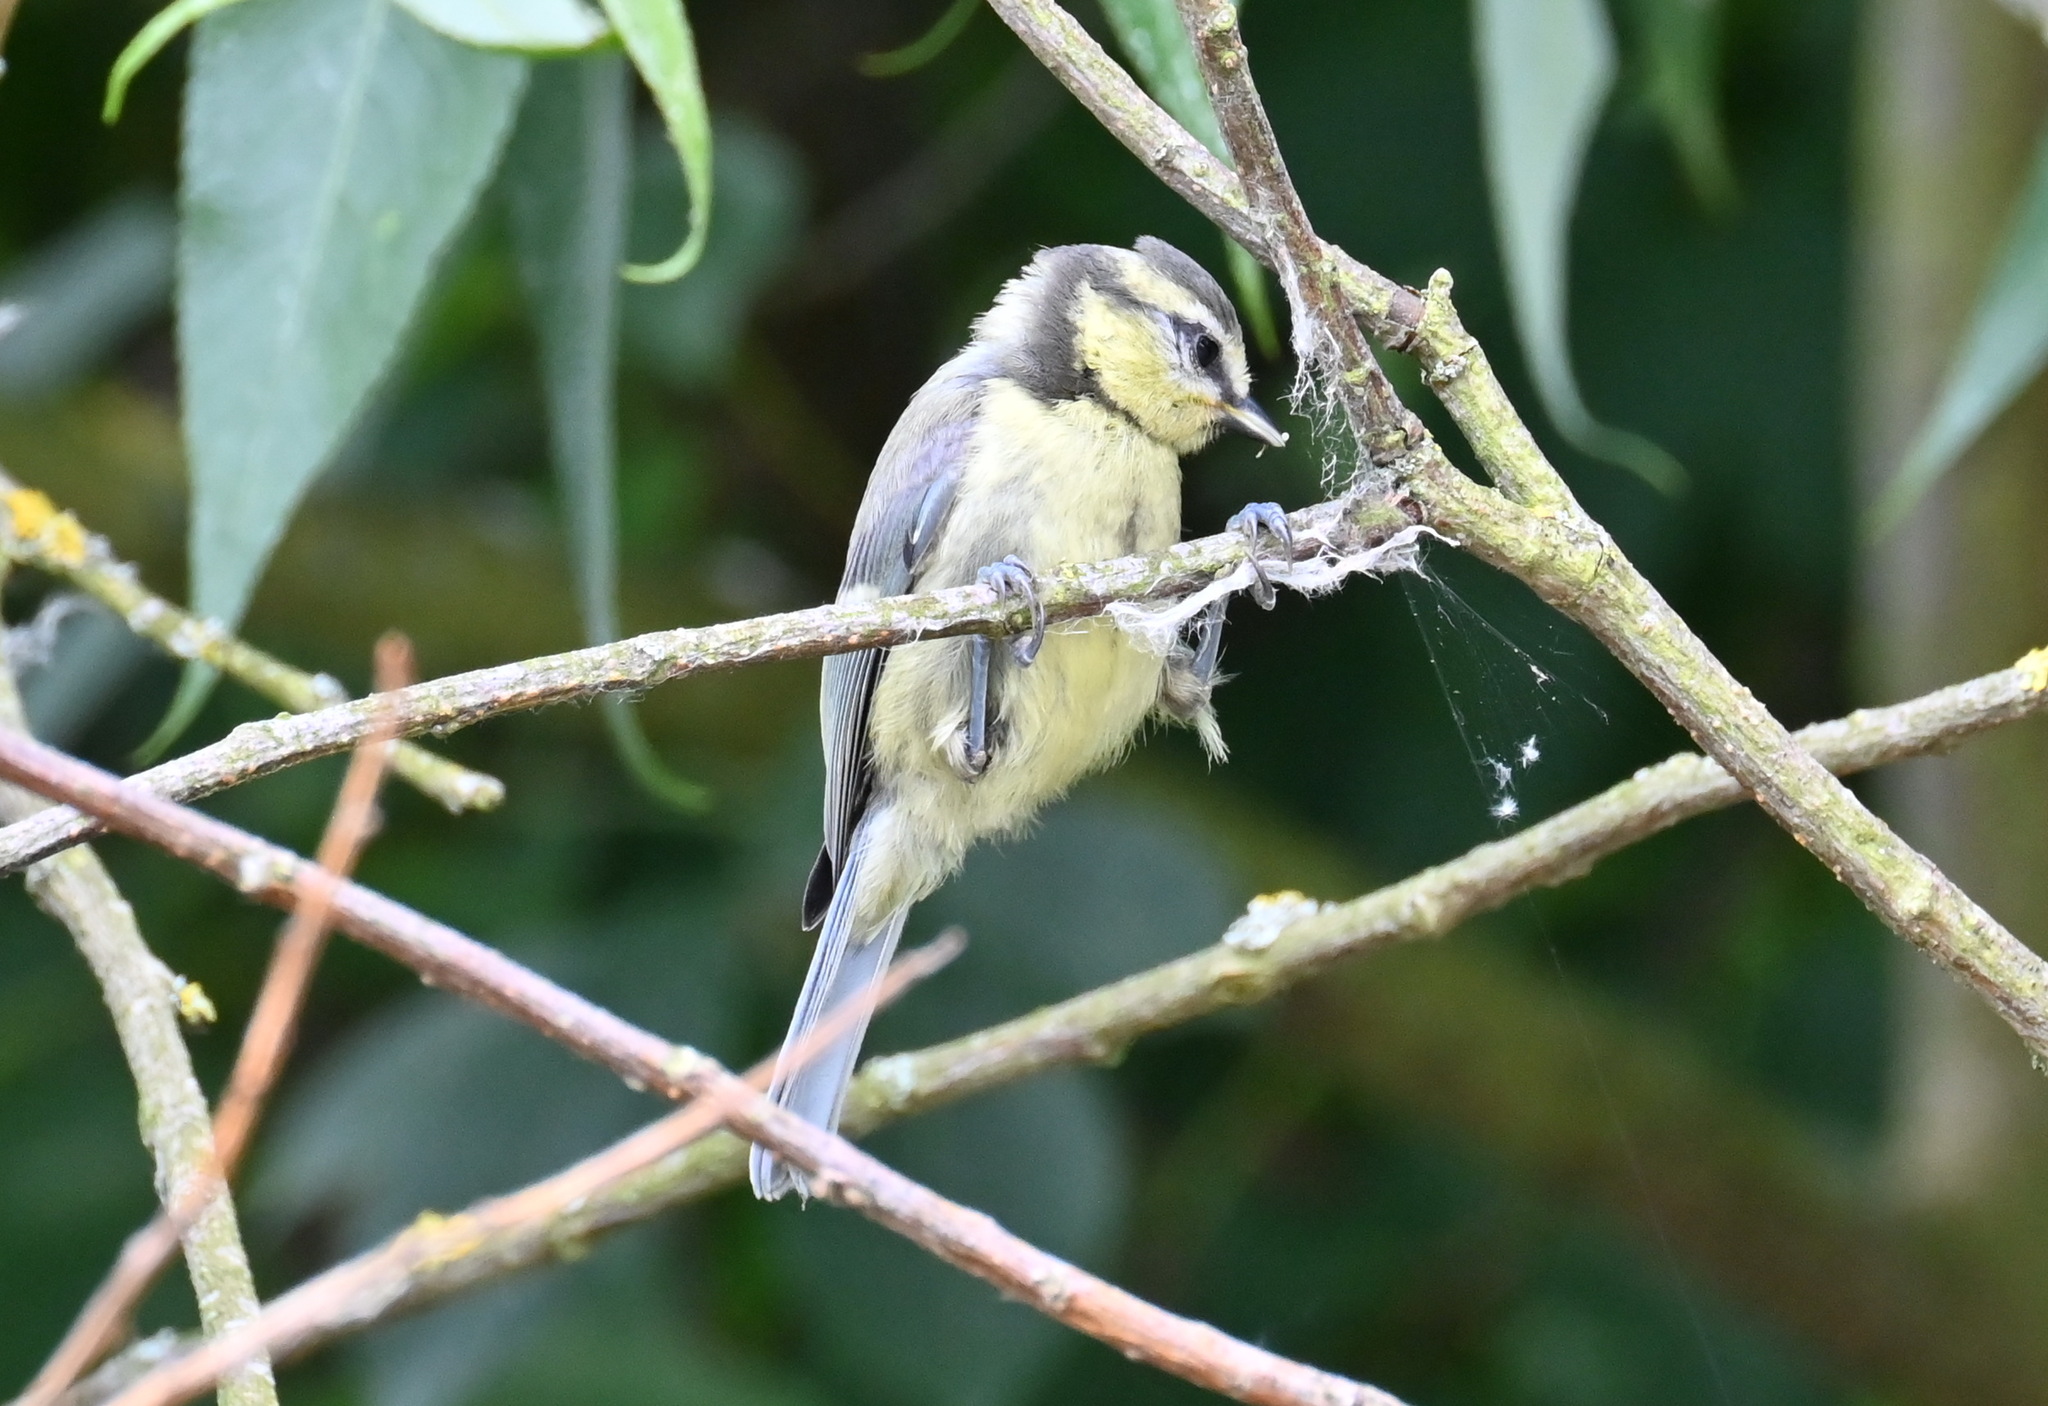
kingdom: Animalia
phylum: Chordata
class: Aves
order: Passeriformes
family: Paridae
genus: Cyanistes
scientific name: Cyanistes caeruleus
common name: Eurasian blue tit
